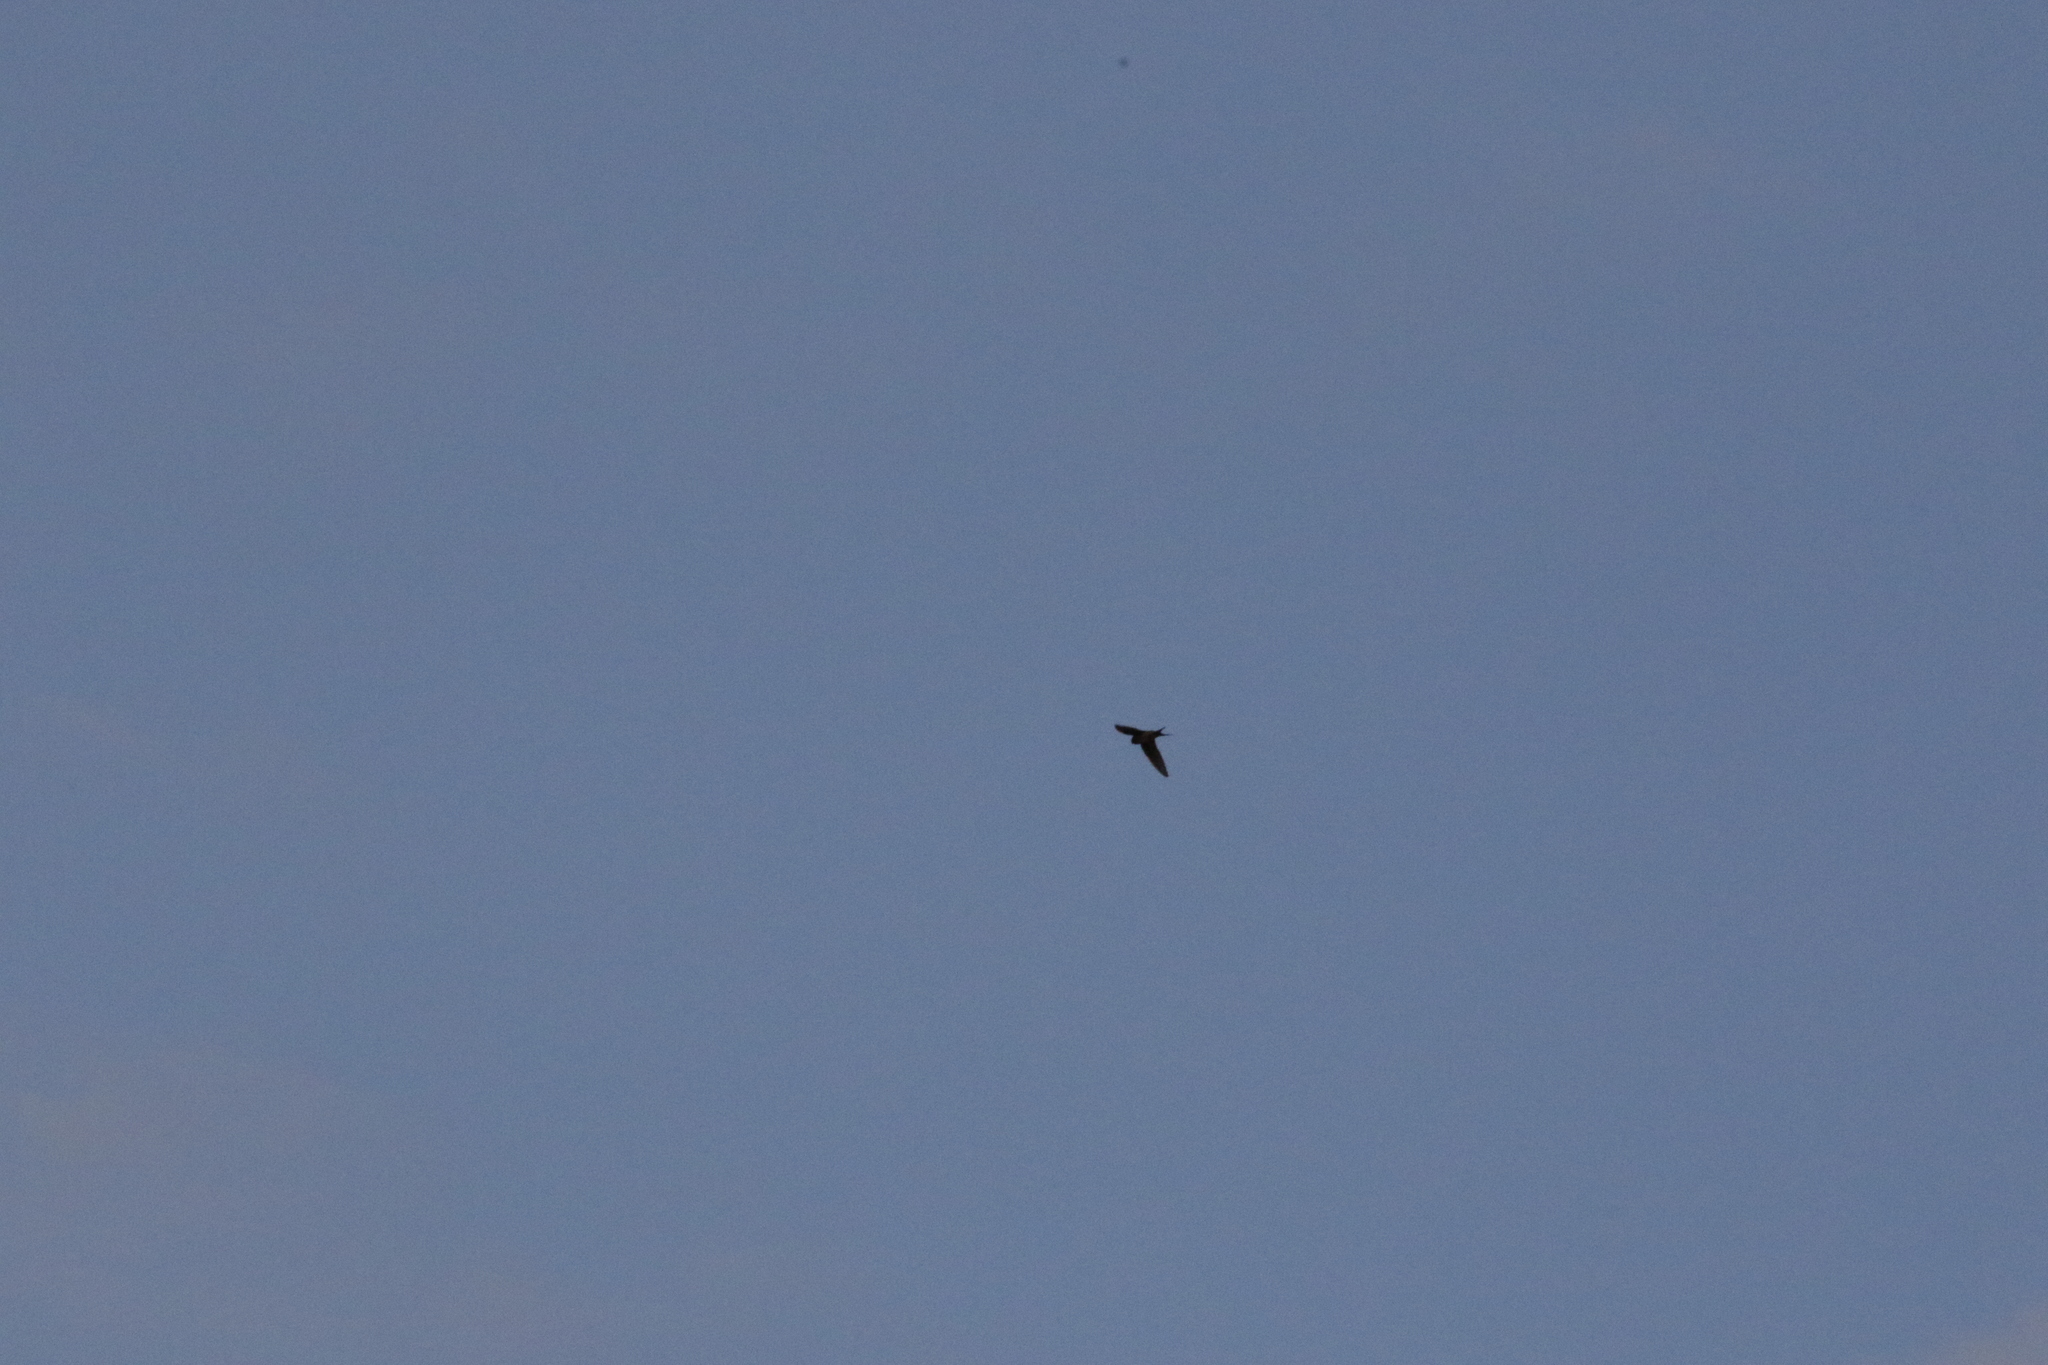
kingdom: Animalia
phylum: Chordata
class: Aves
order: Passeriformes
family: Hirundinidae
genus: Hirundo
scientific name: Hirundo neoxena
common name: Welcome swallow
